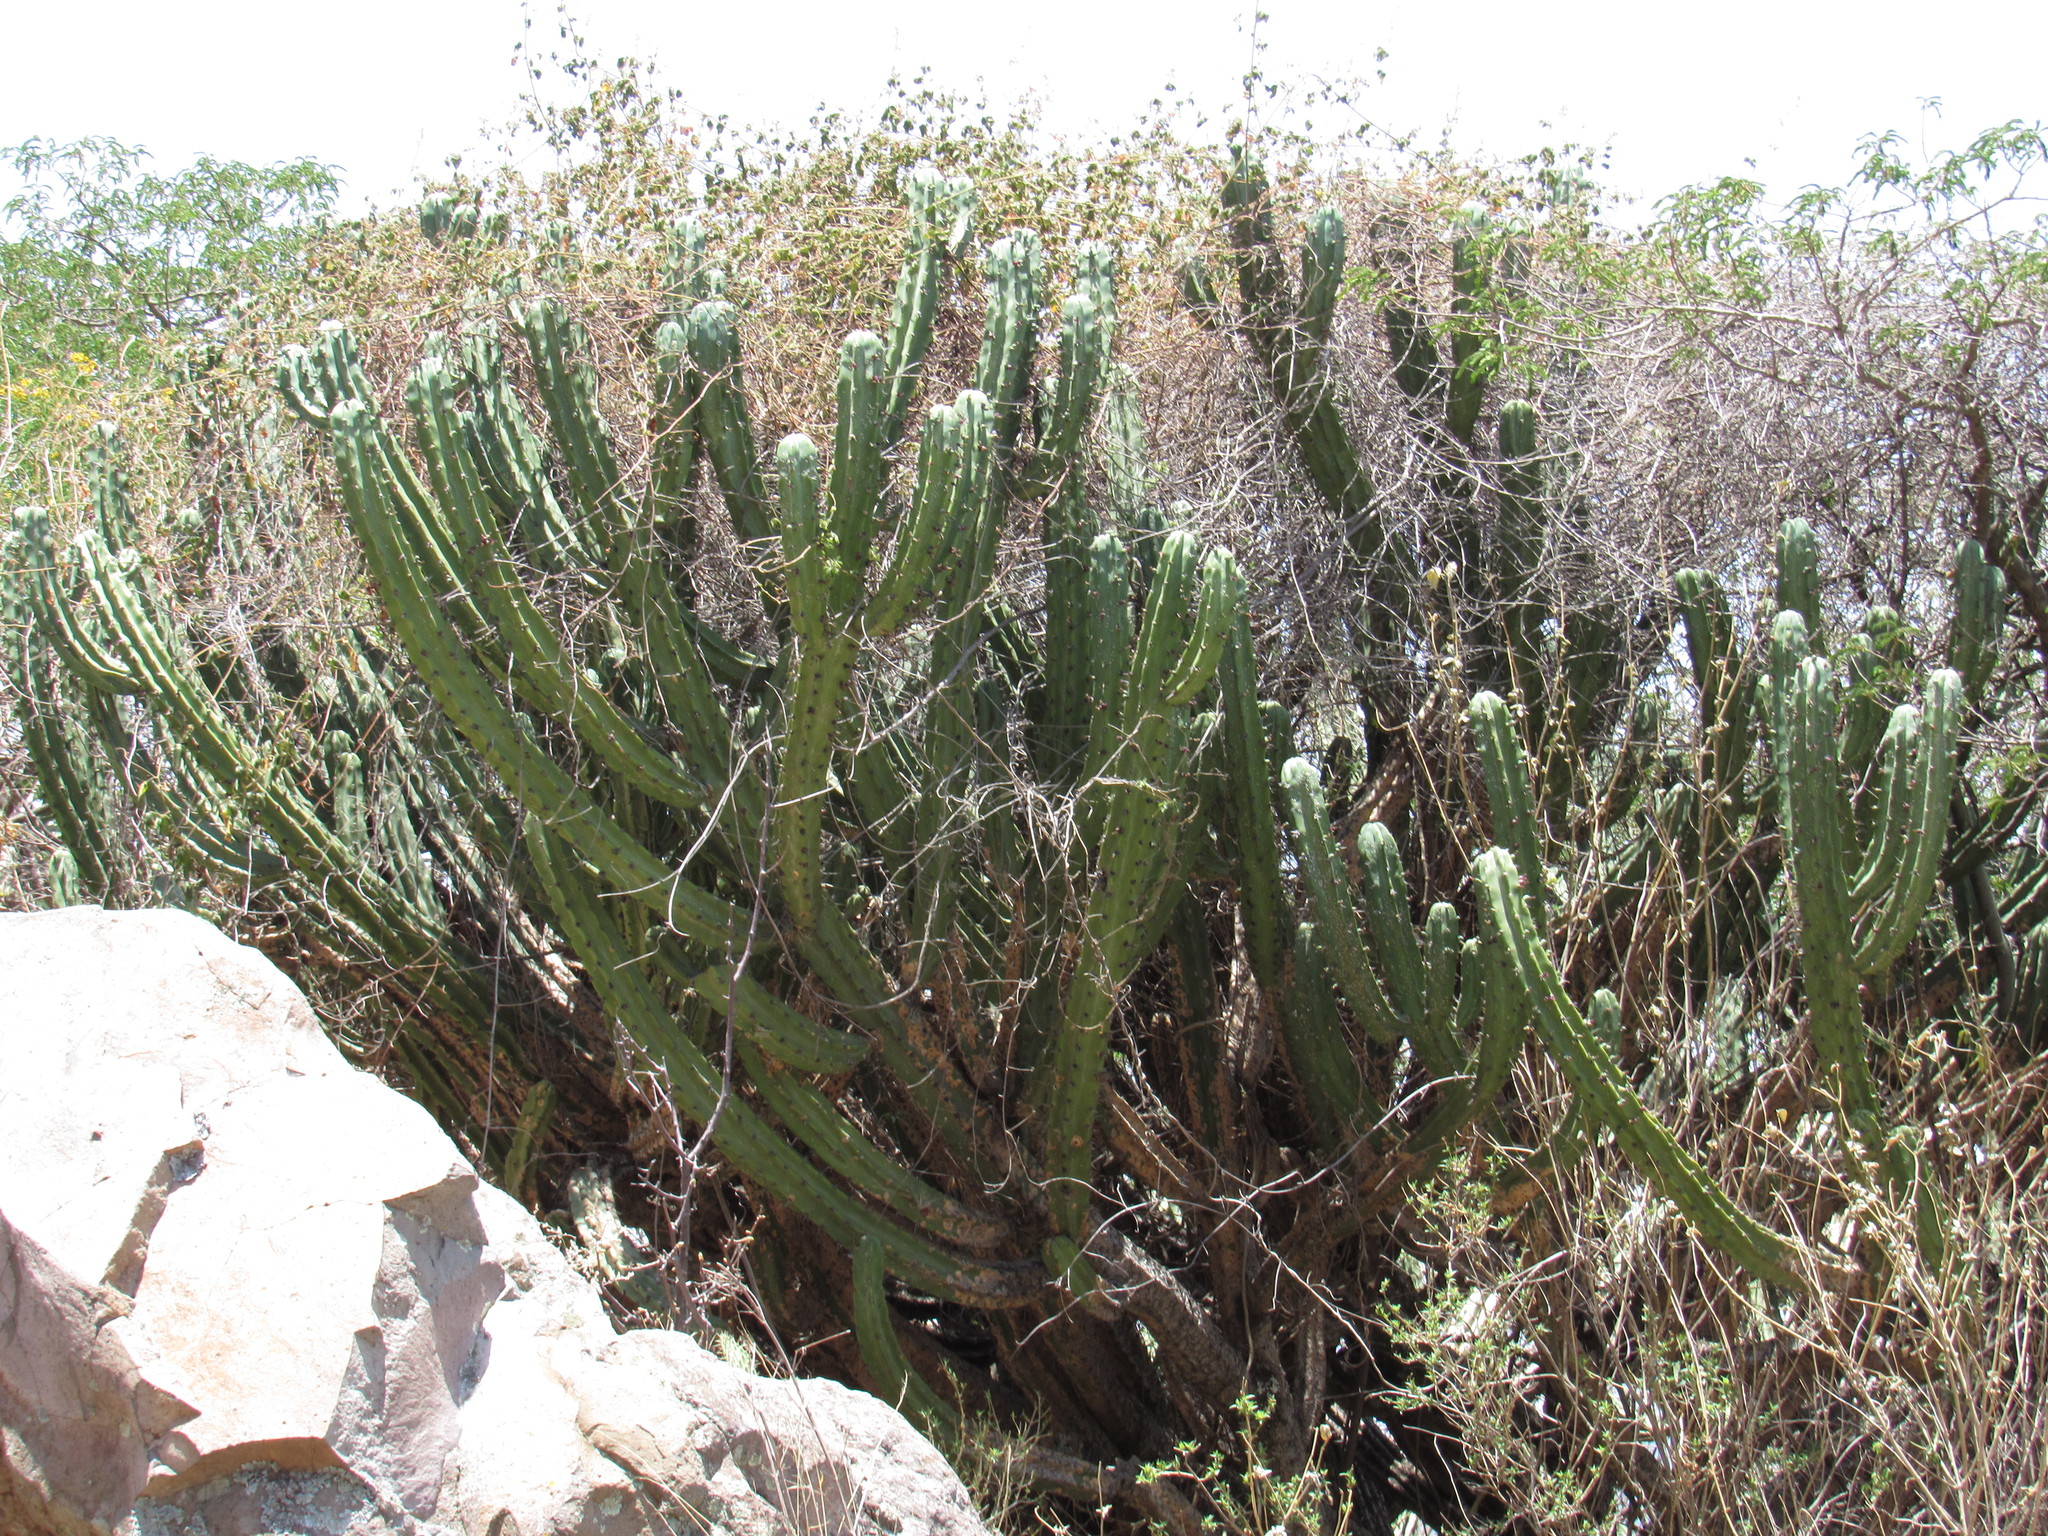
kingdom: Plantae
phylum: Tracheophyta
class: Magnoliopsida
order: Caryophyllales
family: Cactaceae
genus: Myrtillocactus
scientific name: Myrtillocactus geometrizans
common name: Bilberry cactus
